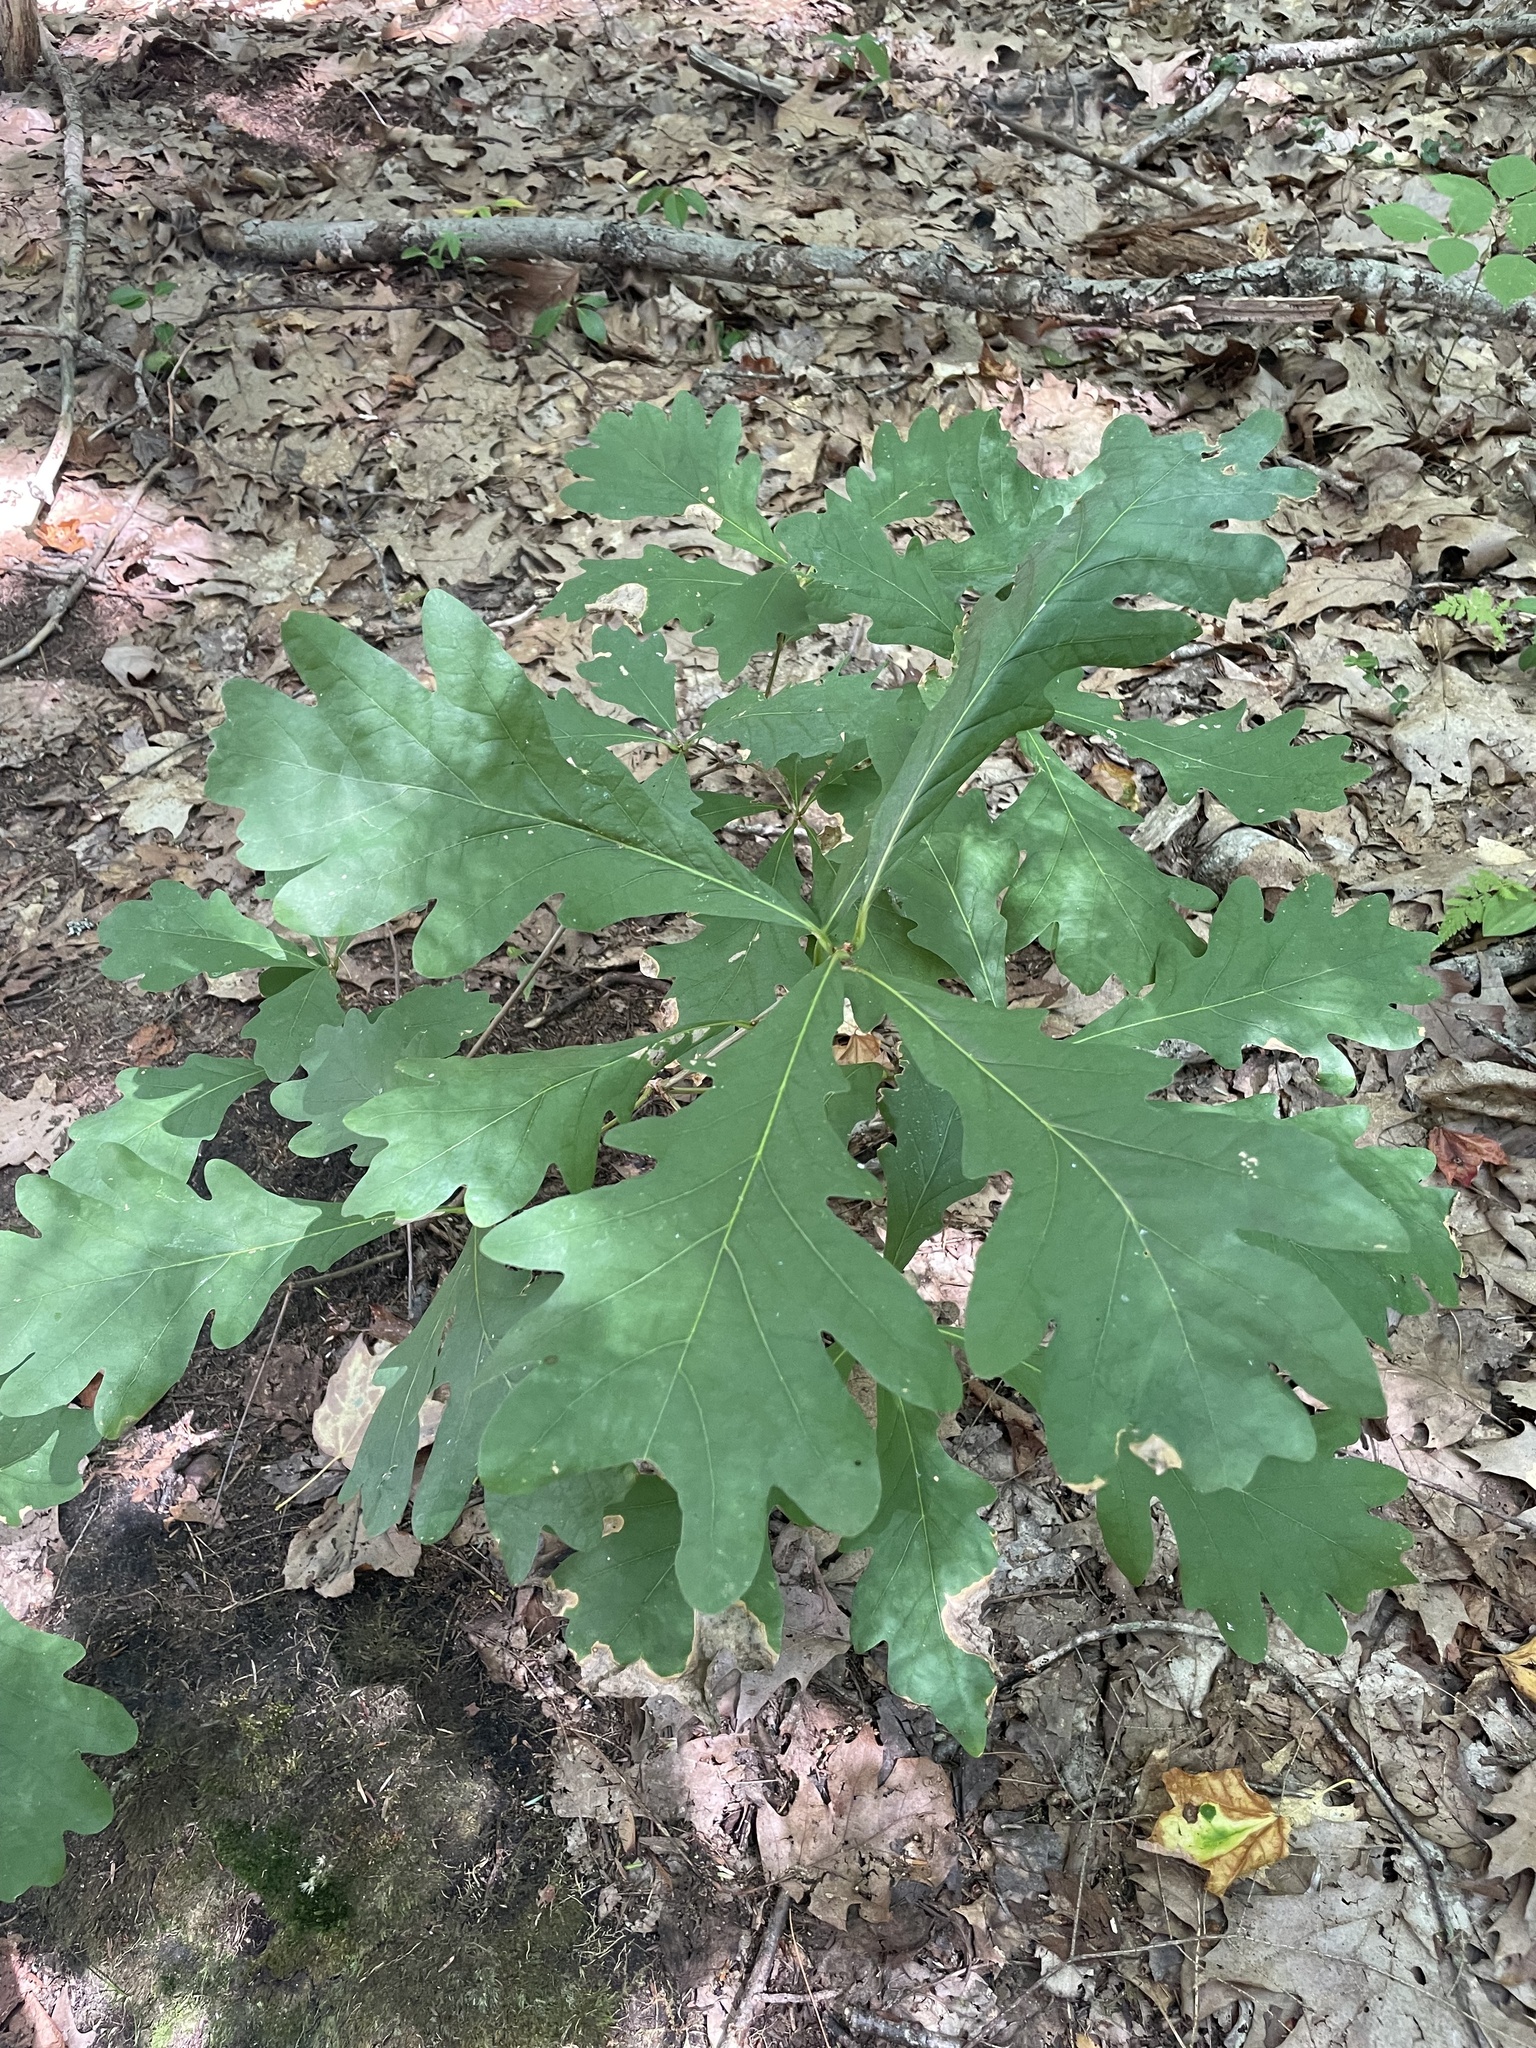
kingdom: Plantae
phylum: Tracheophyta
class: Magnoliopsida
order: Fagales
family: Fagaceae
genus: Quercus
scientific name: Quercus alba
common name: White oak
